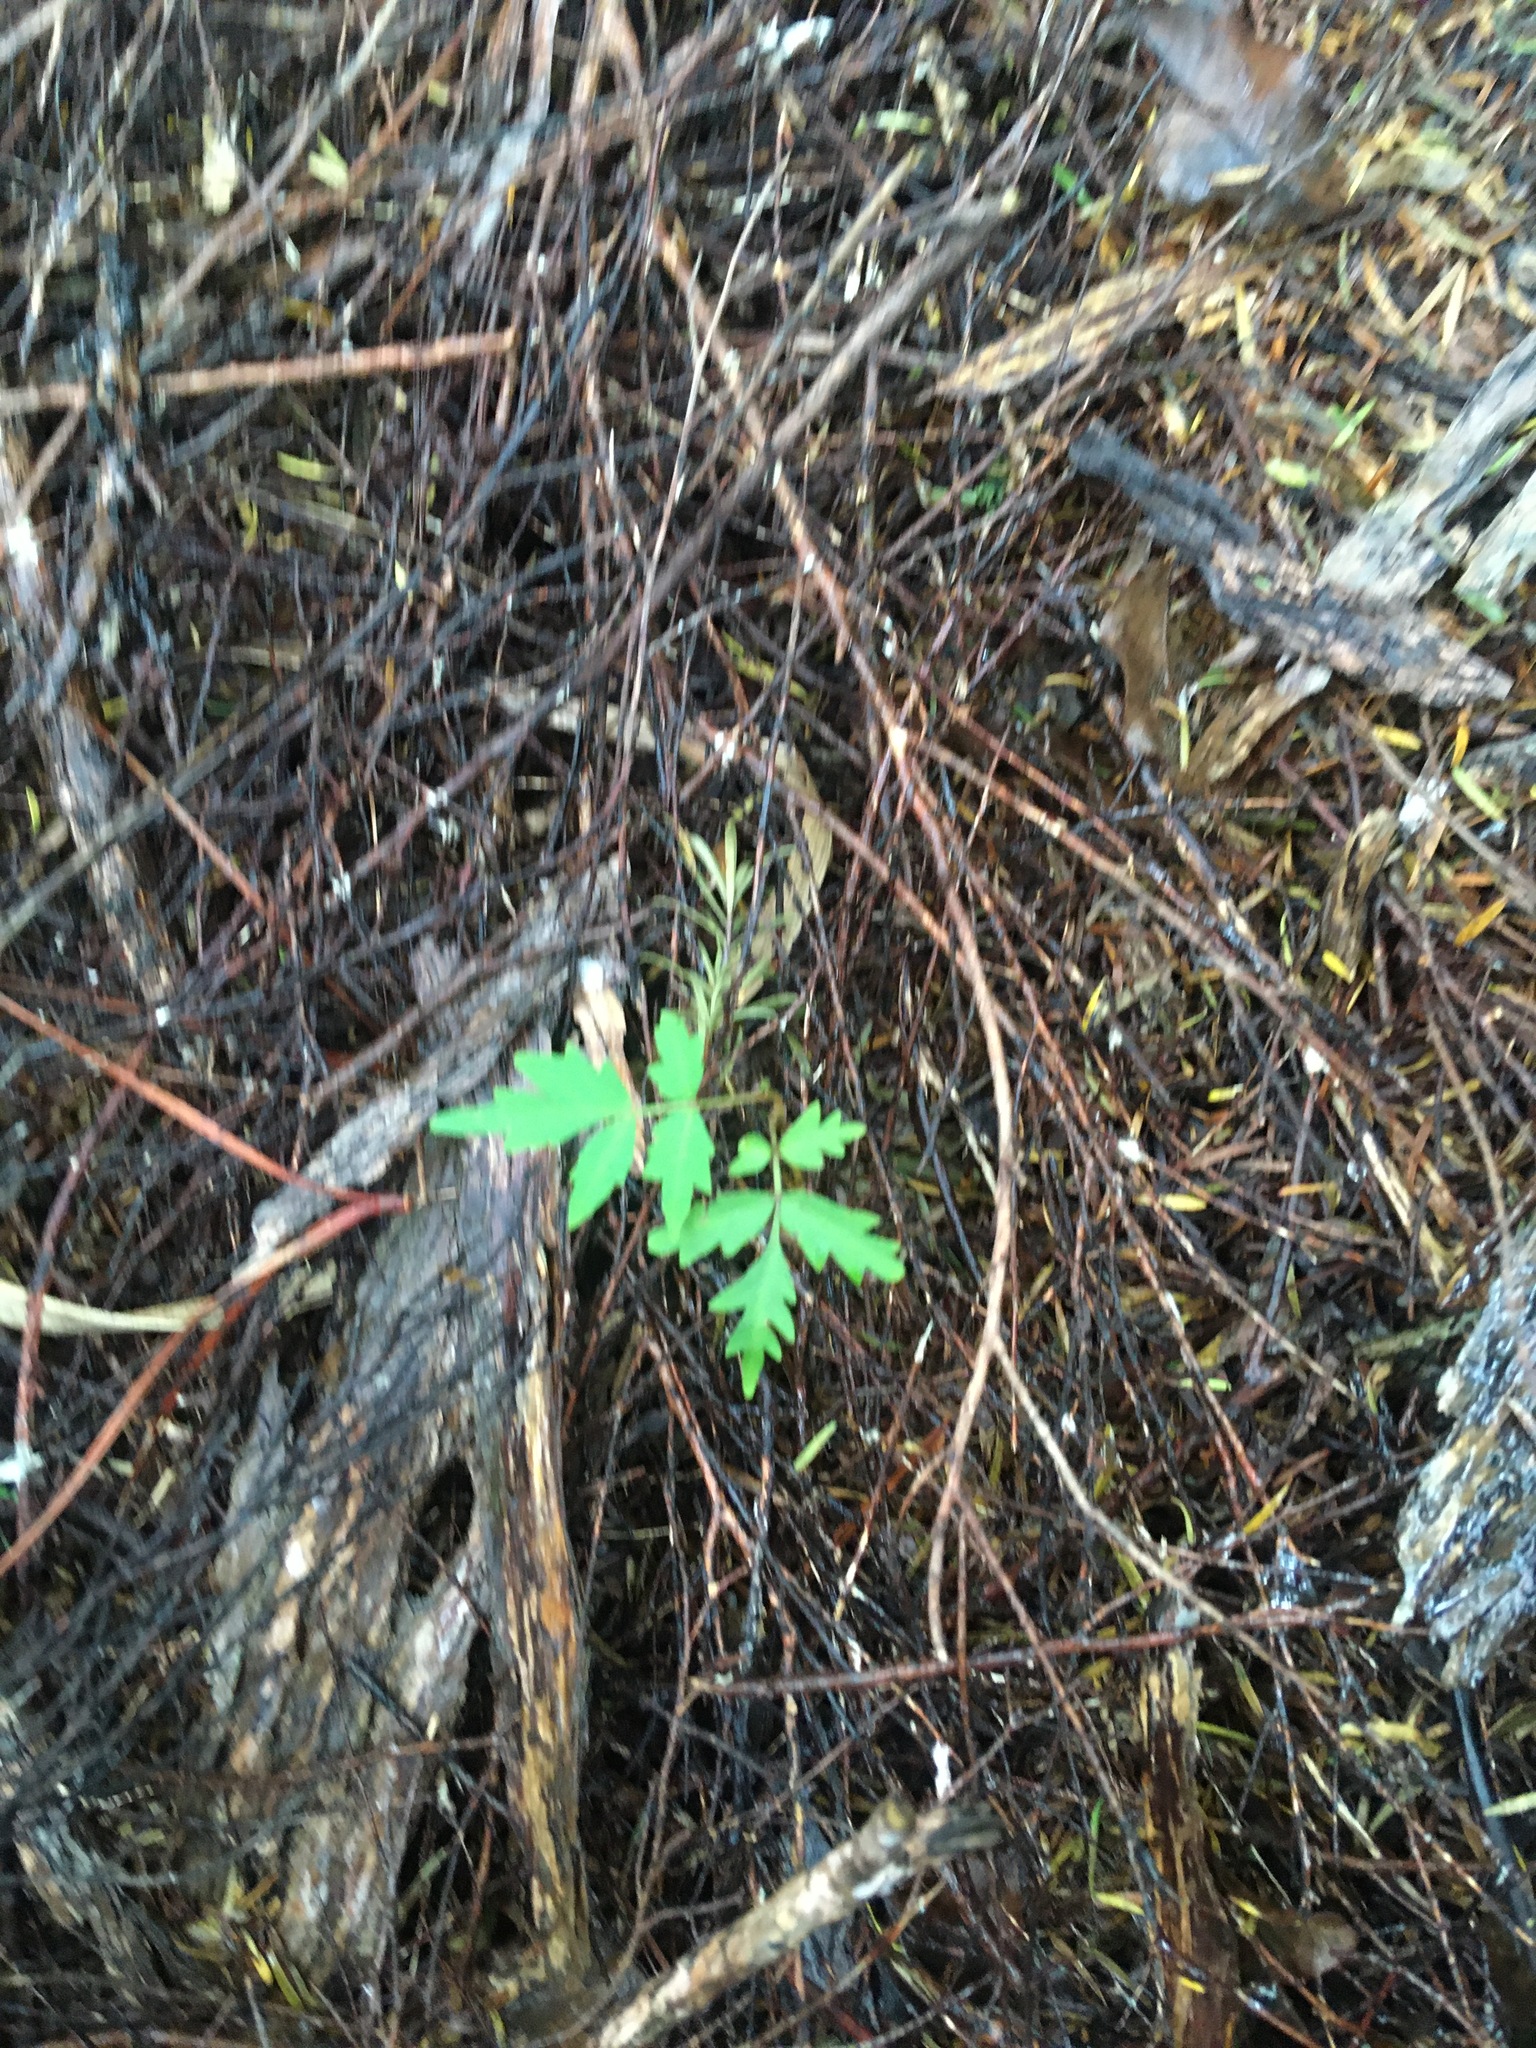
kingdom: Plantae
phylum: Tracheophyta
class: Magnoliopsida
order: Sapindales
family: Simaroubaceae
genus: Ailanthus
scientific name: Ailanthus altissima
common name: Tree-of-heaven
